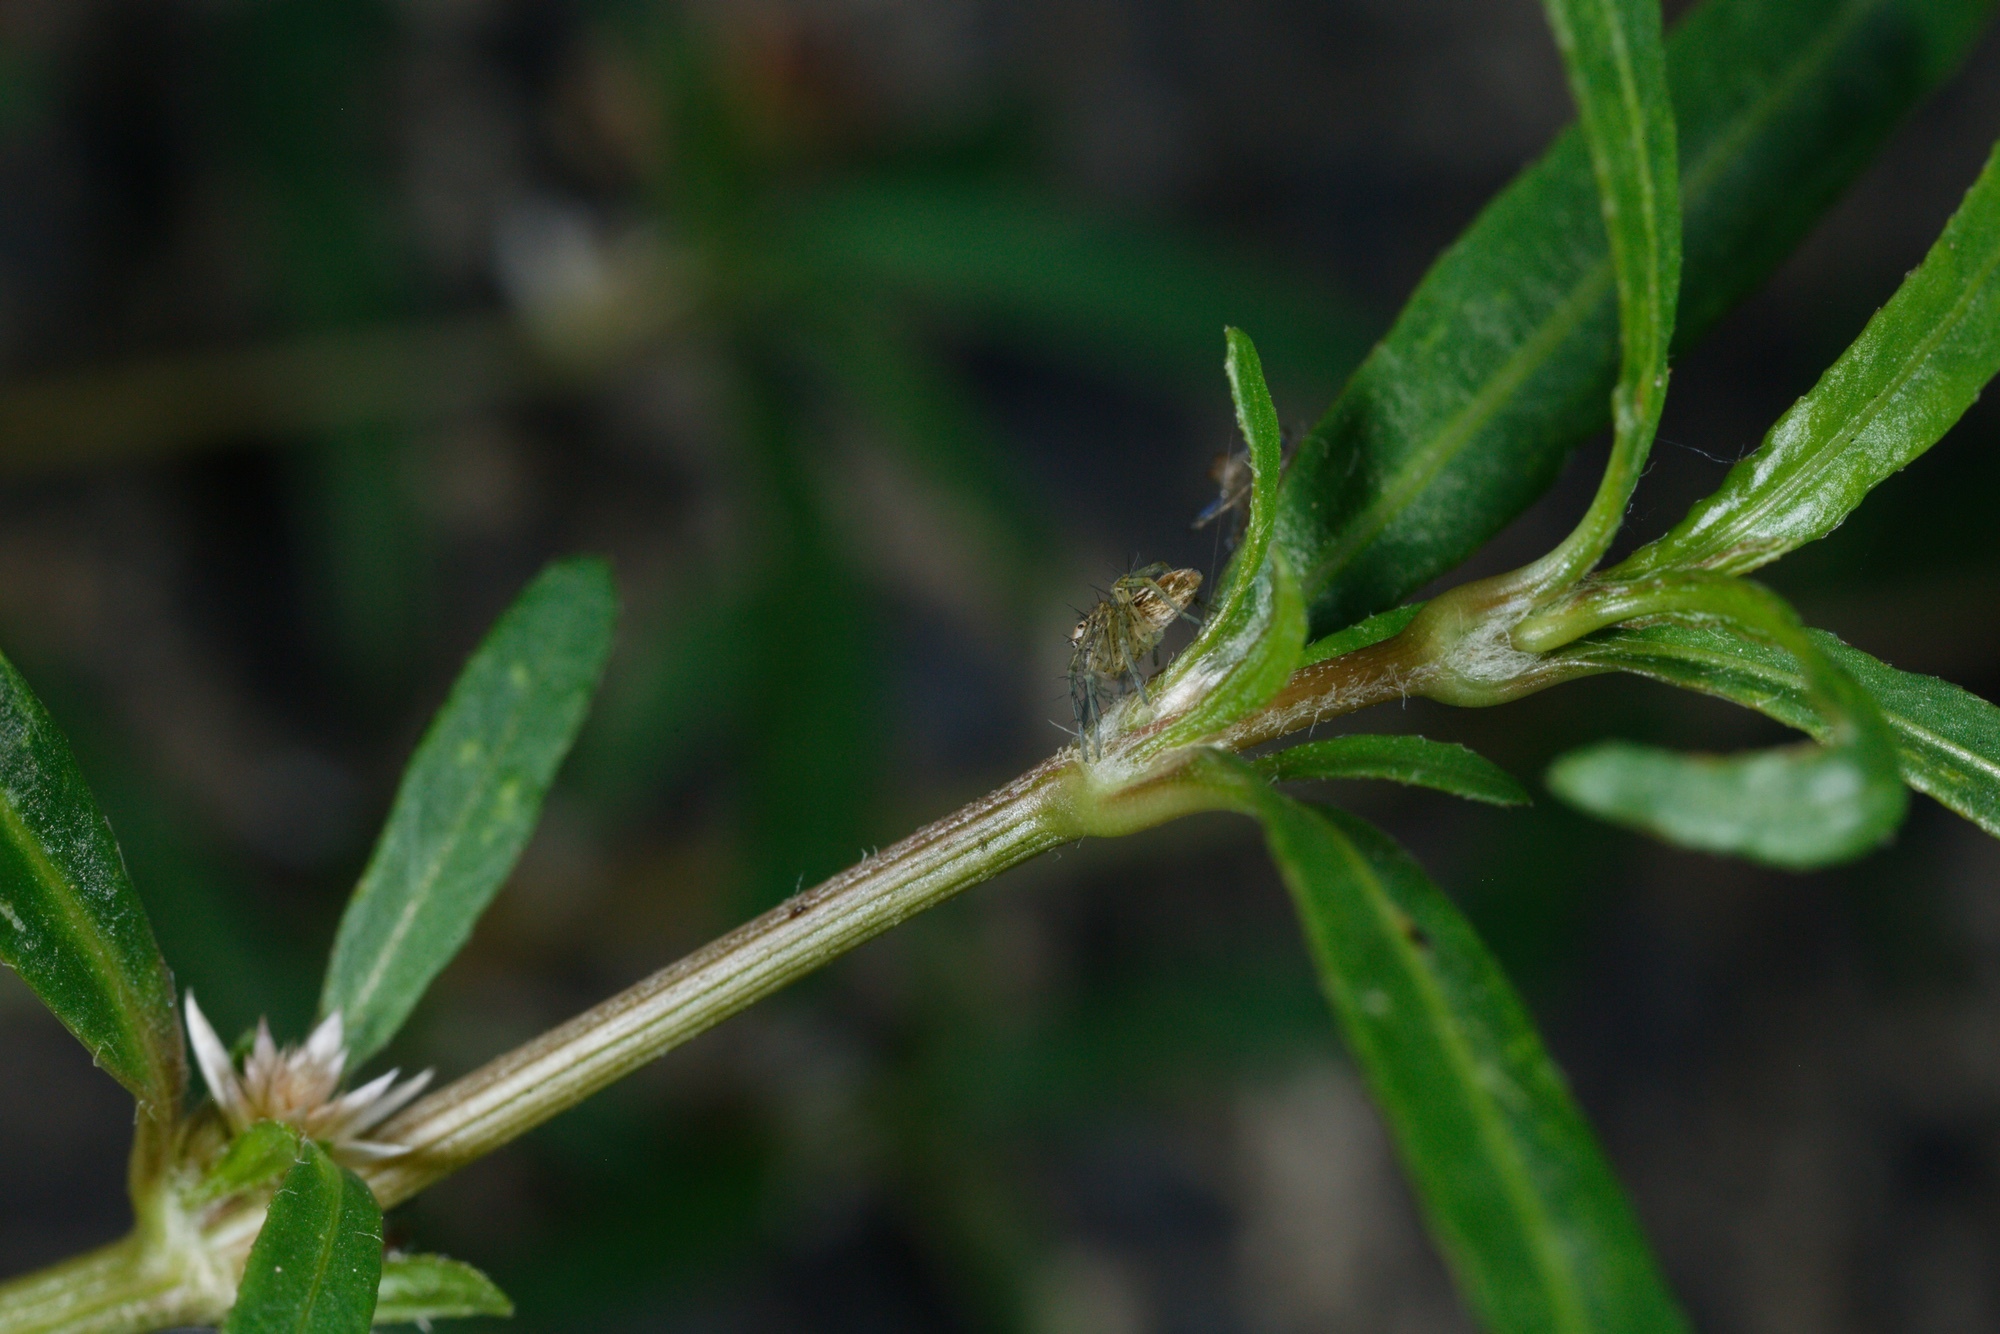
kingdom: Animalia
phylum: Arthropoda
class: Arachnida
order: Araneae
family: Oxyopidae
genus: Oxyopes
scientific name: Oxyopes gracilipes
